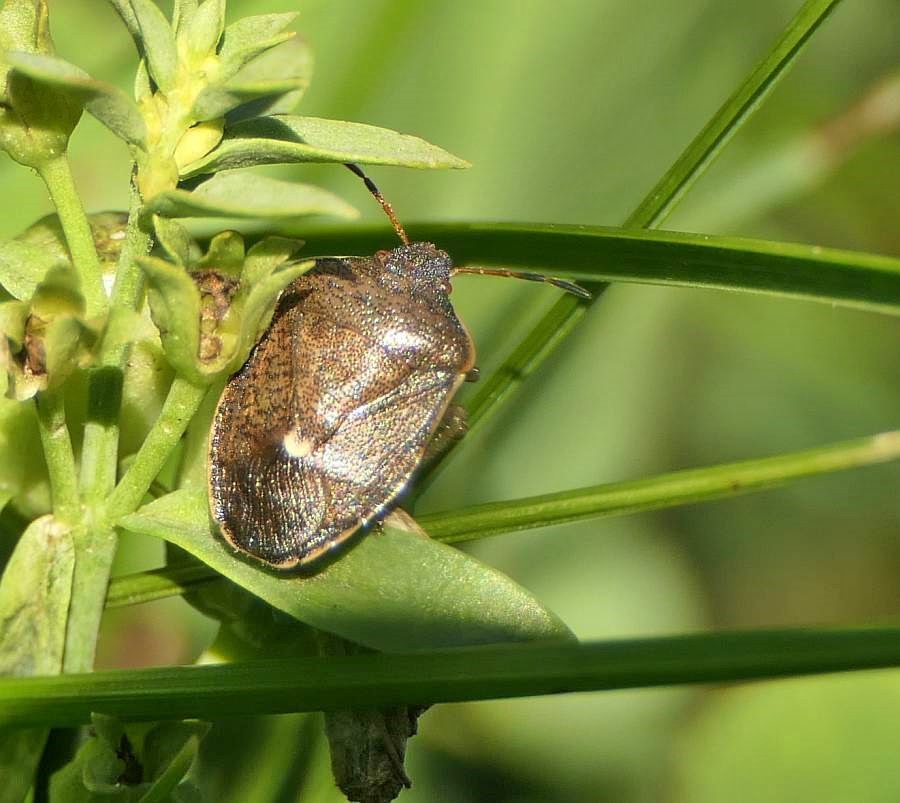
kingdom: Animalia
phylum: Arthropoda
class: Insecta
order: Hemiptera
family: Pentatomidae
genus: Holcostethus
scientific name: Holcostethus limbolarius
